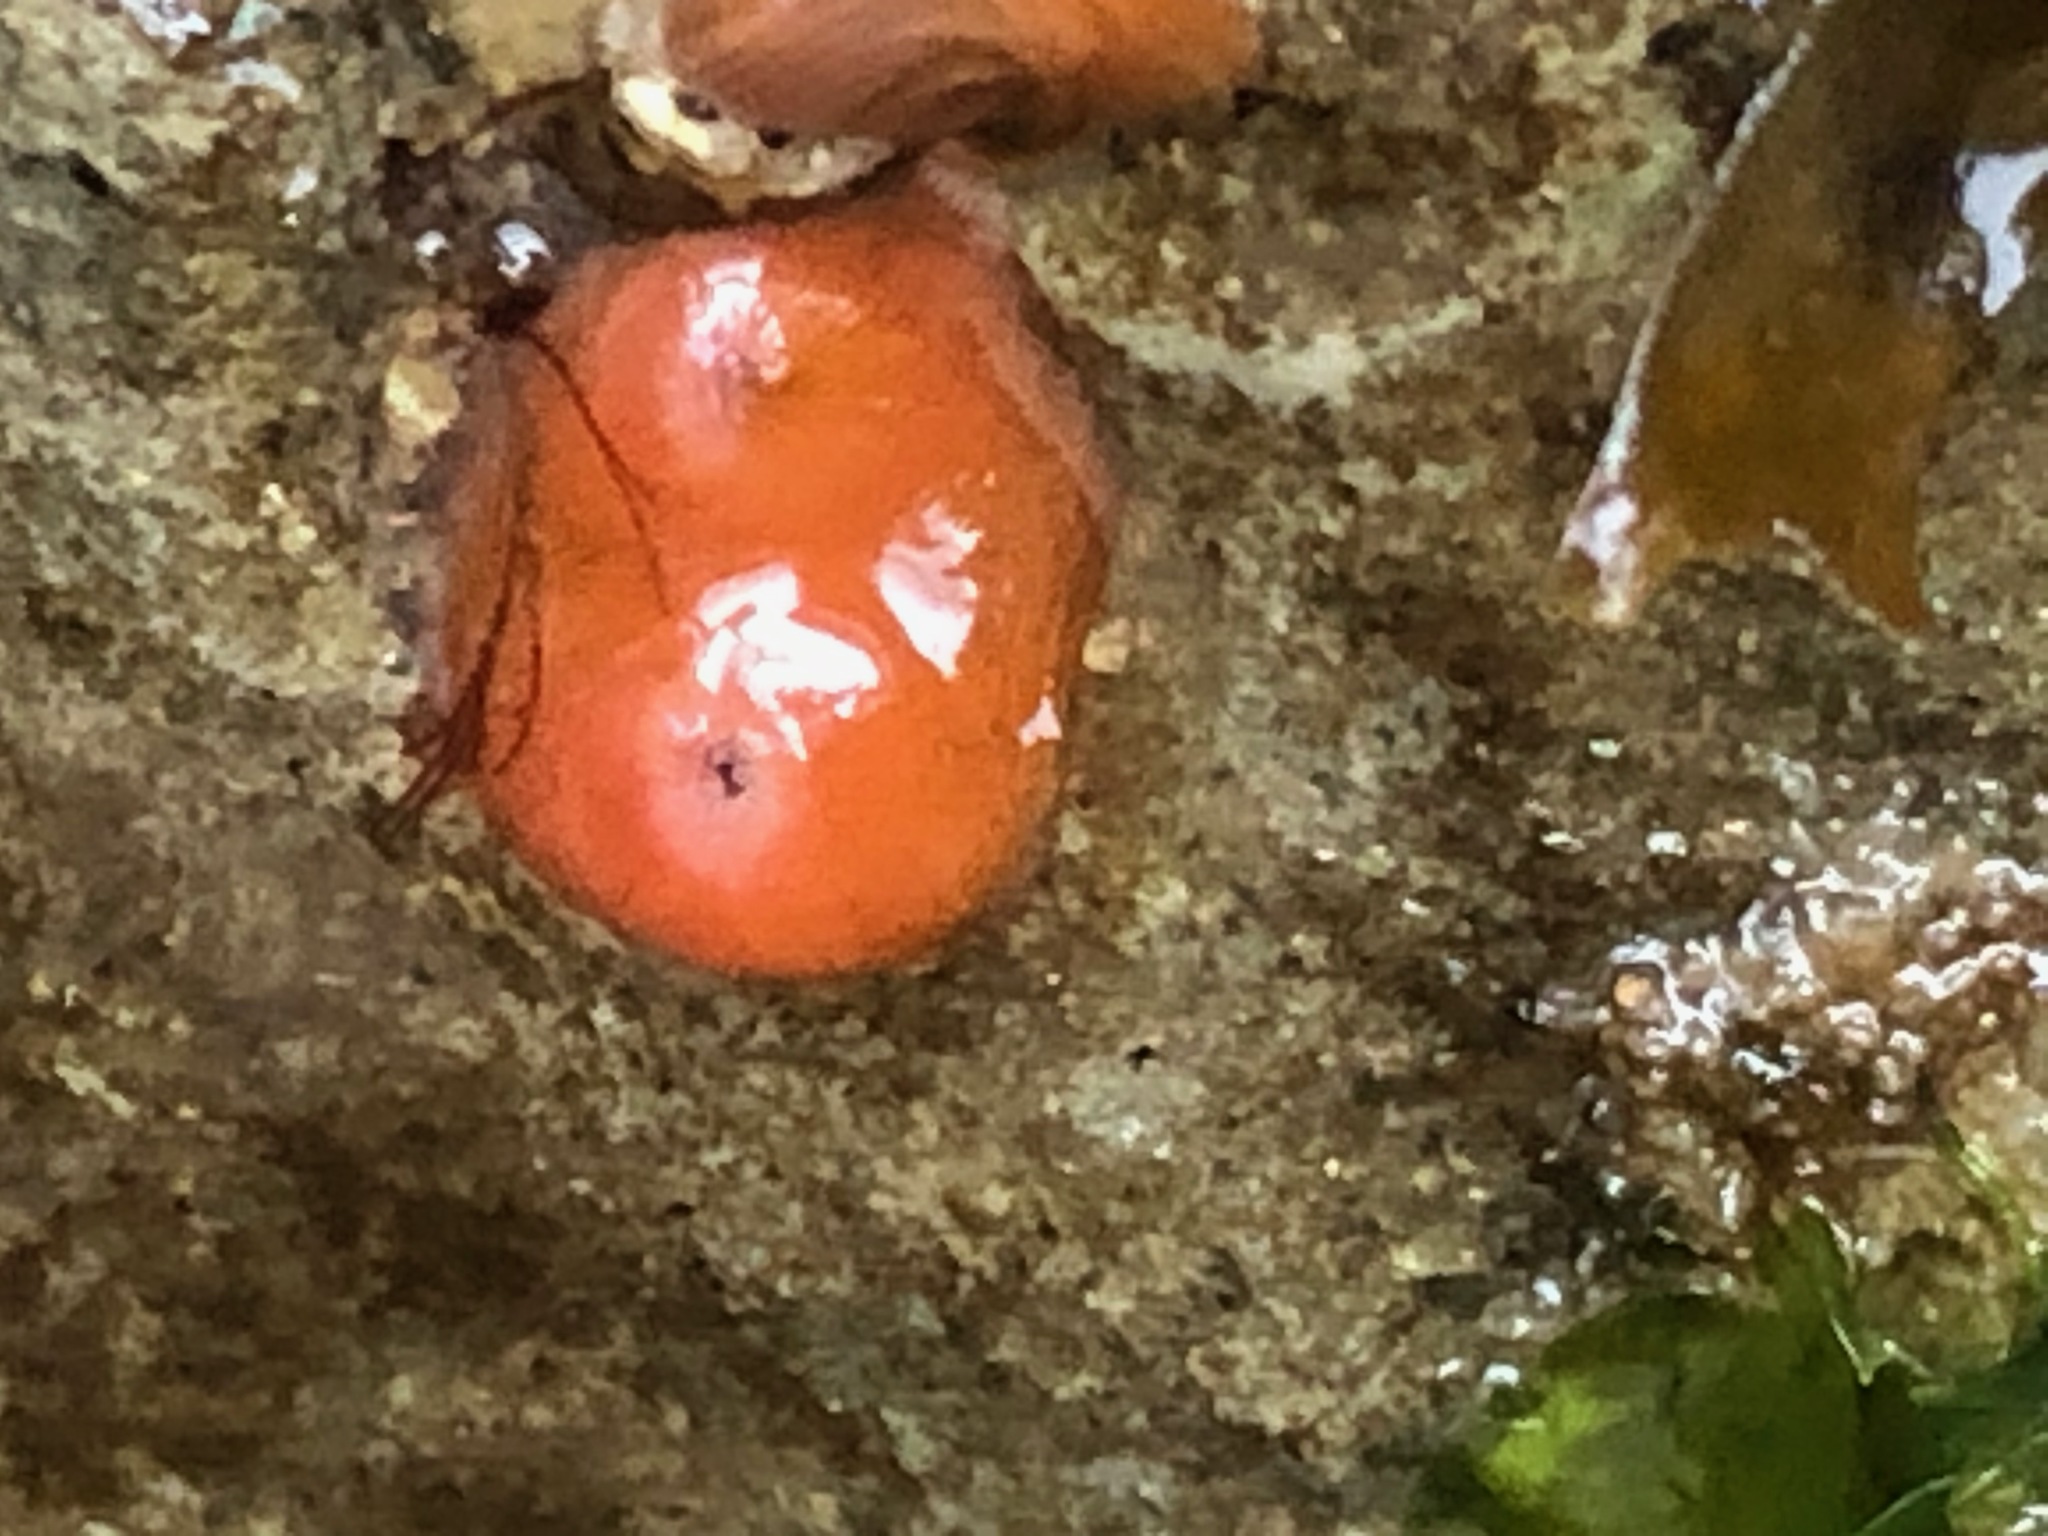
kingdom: Animalia
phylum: Mollusca
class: Bivalvia
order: Adapedonta
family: Hiatellidae
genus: Hiatella
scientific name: Hiatella arctica
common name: Arctic hiatella
